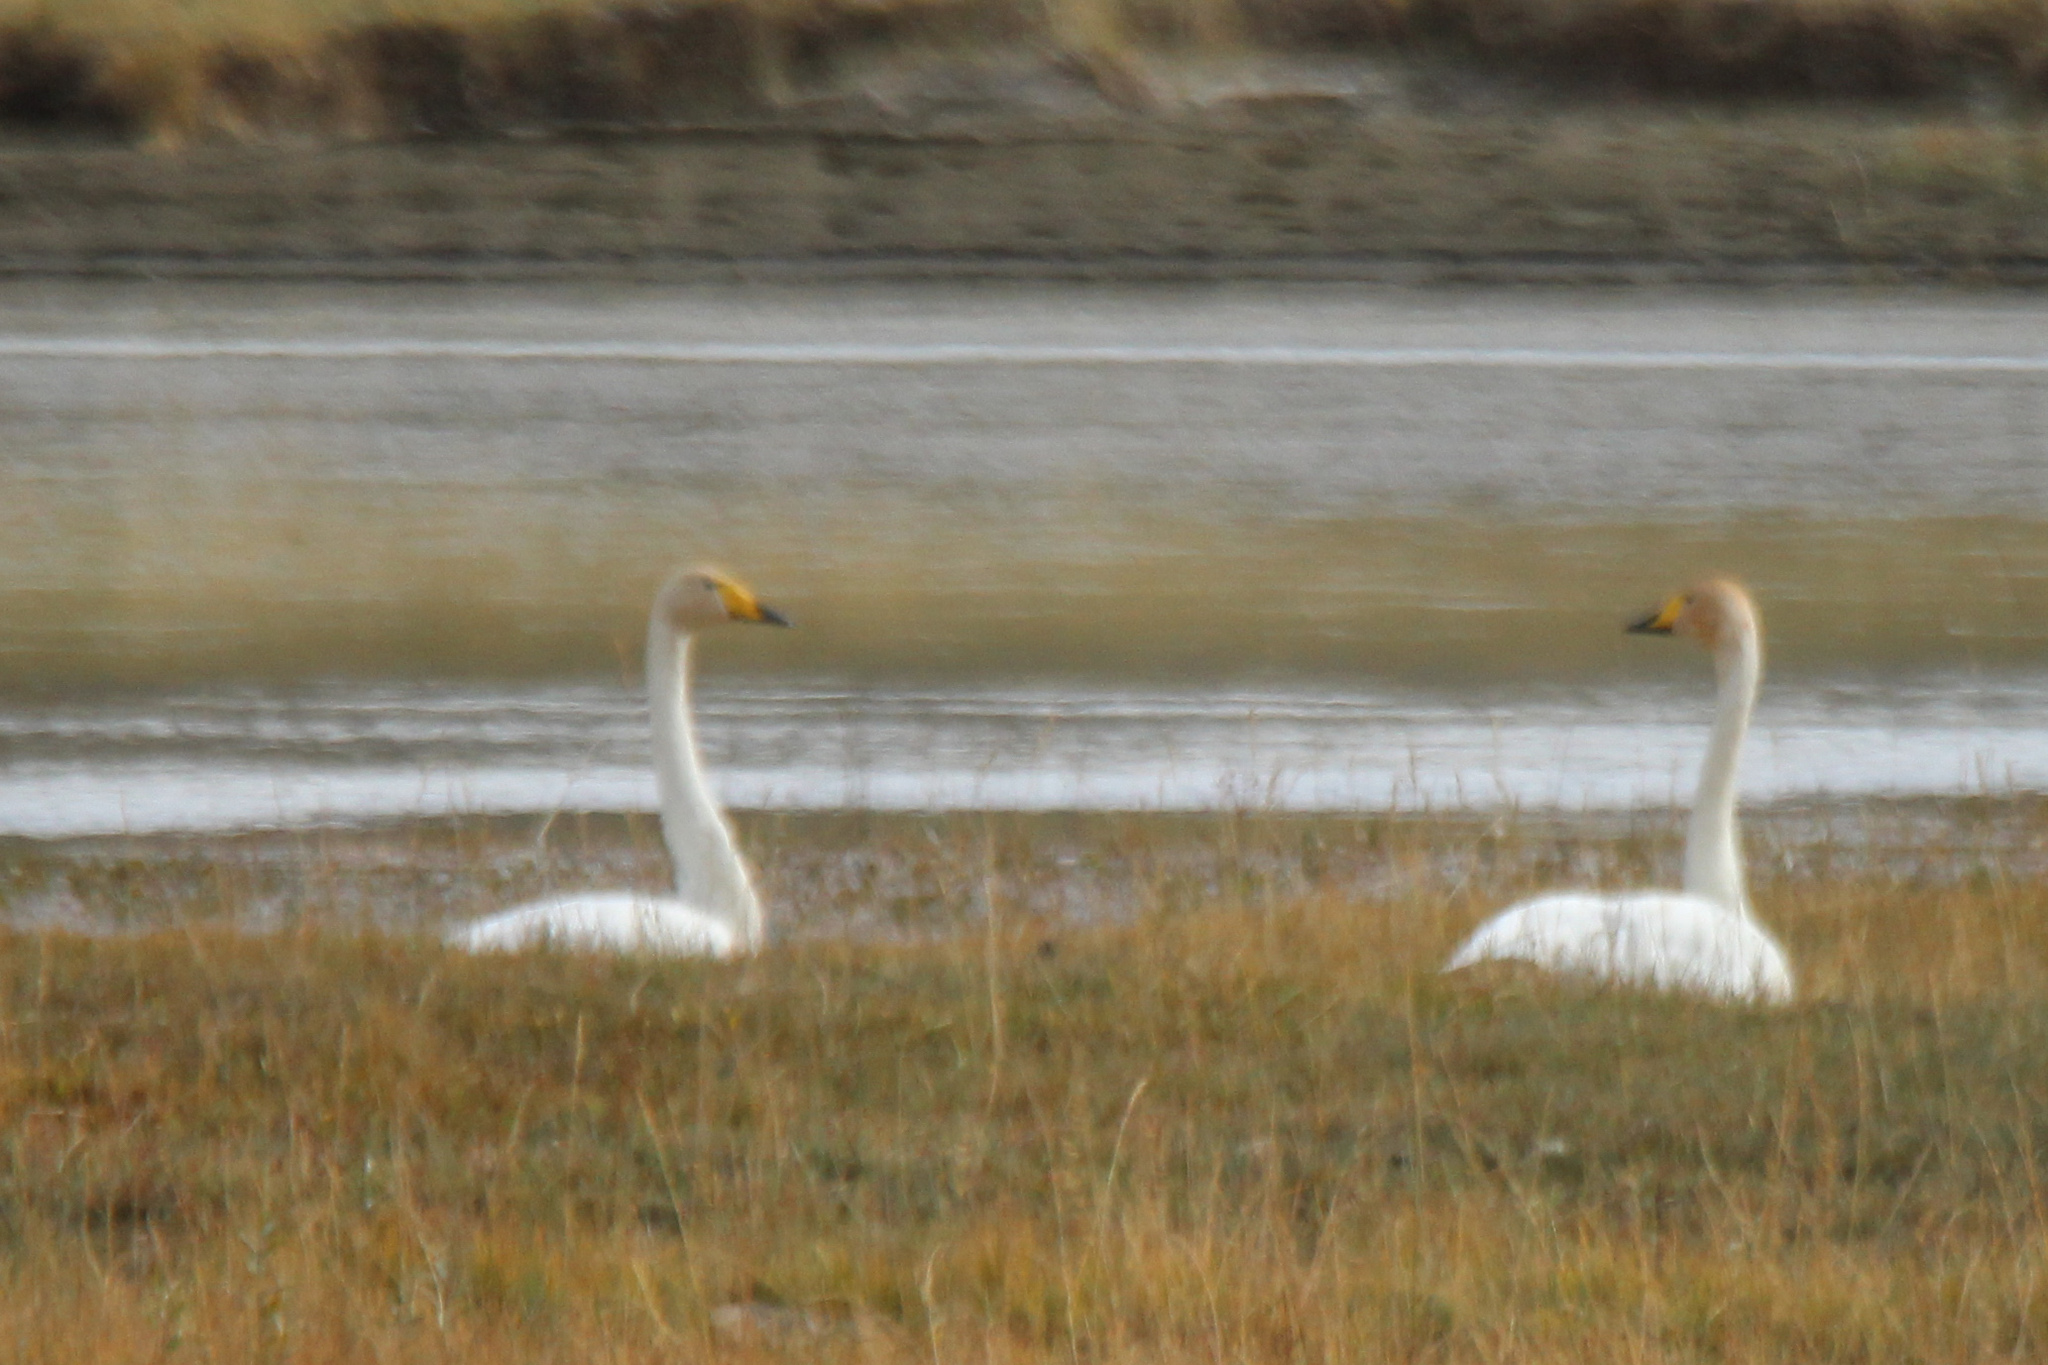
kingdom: Animalia
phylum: Chordata
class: Aves
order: Anseriformes
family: Anatidae
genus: Cygnus
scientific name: Cygnus cygnus
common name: Whooper swan
